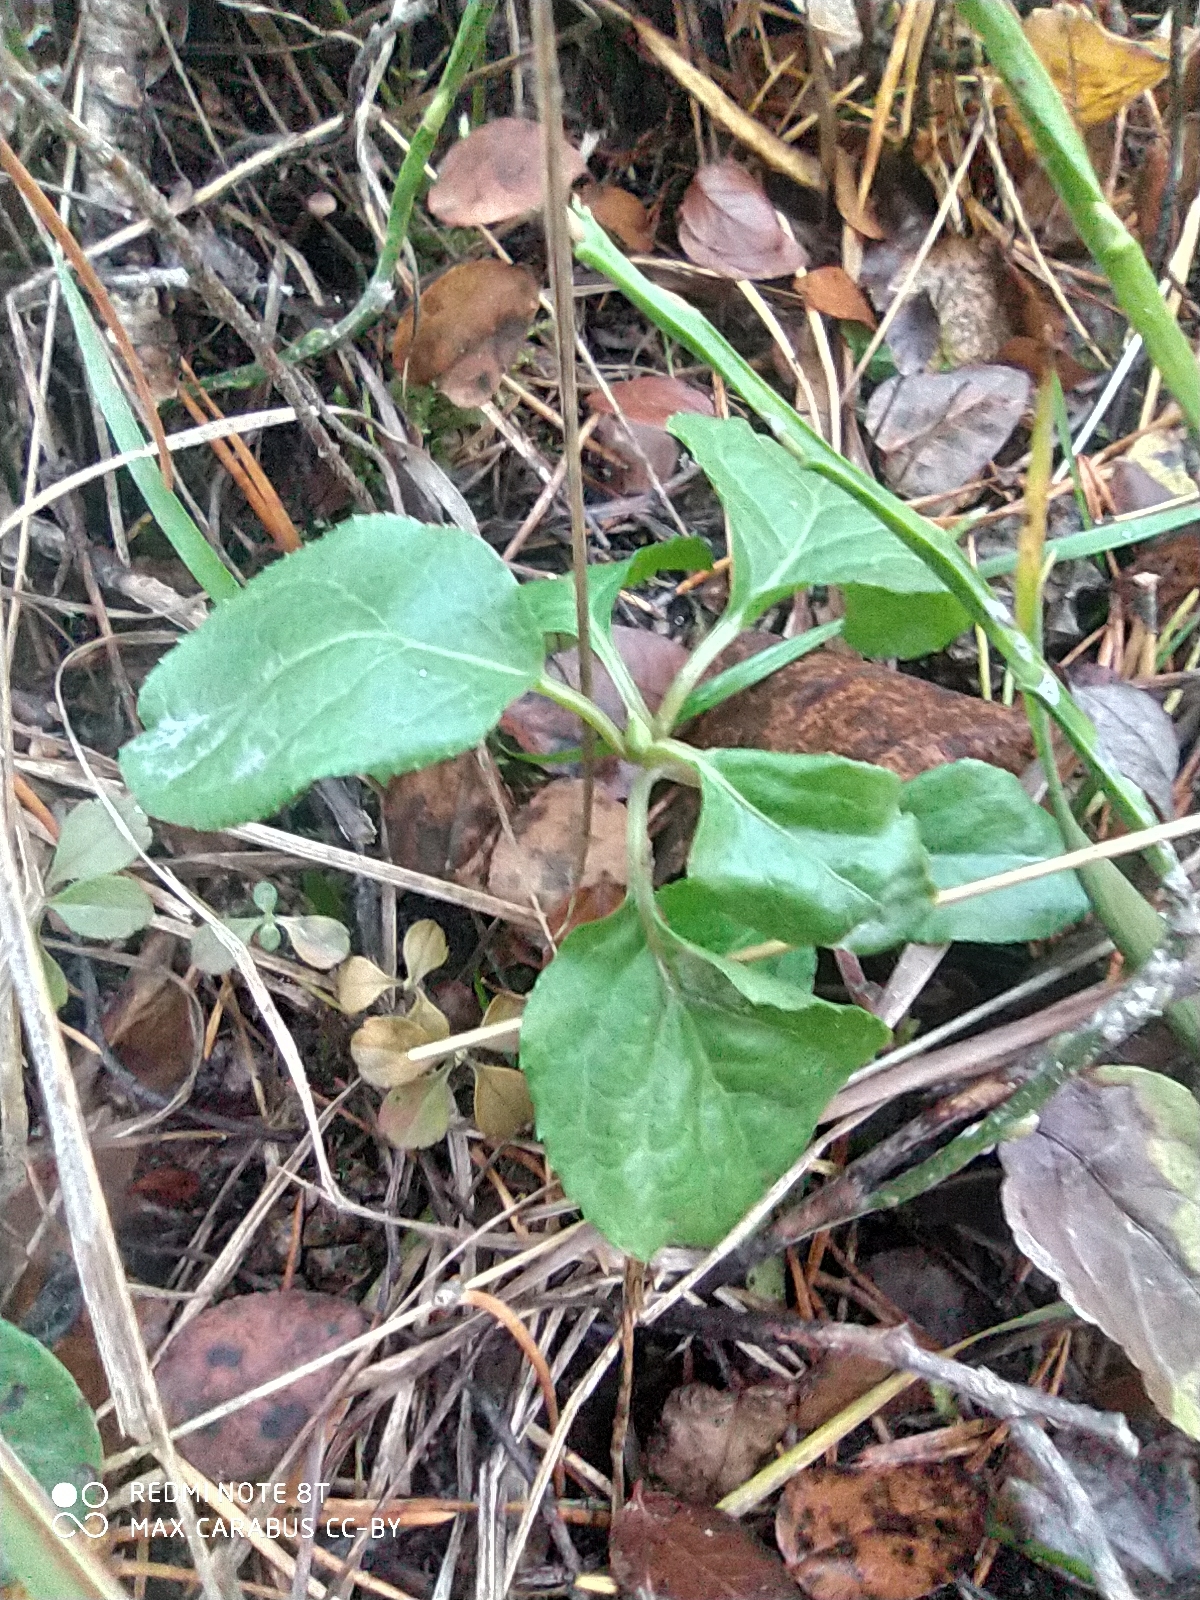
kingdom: Plantae
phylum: Tracheophyta
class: Magnoliopsida
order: Ericales
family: Ericaceae
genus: Orthilia
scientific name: Orthilia secunda
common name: One-sided orthilia
